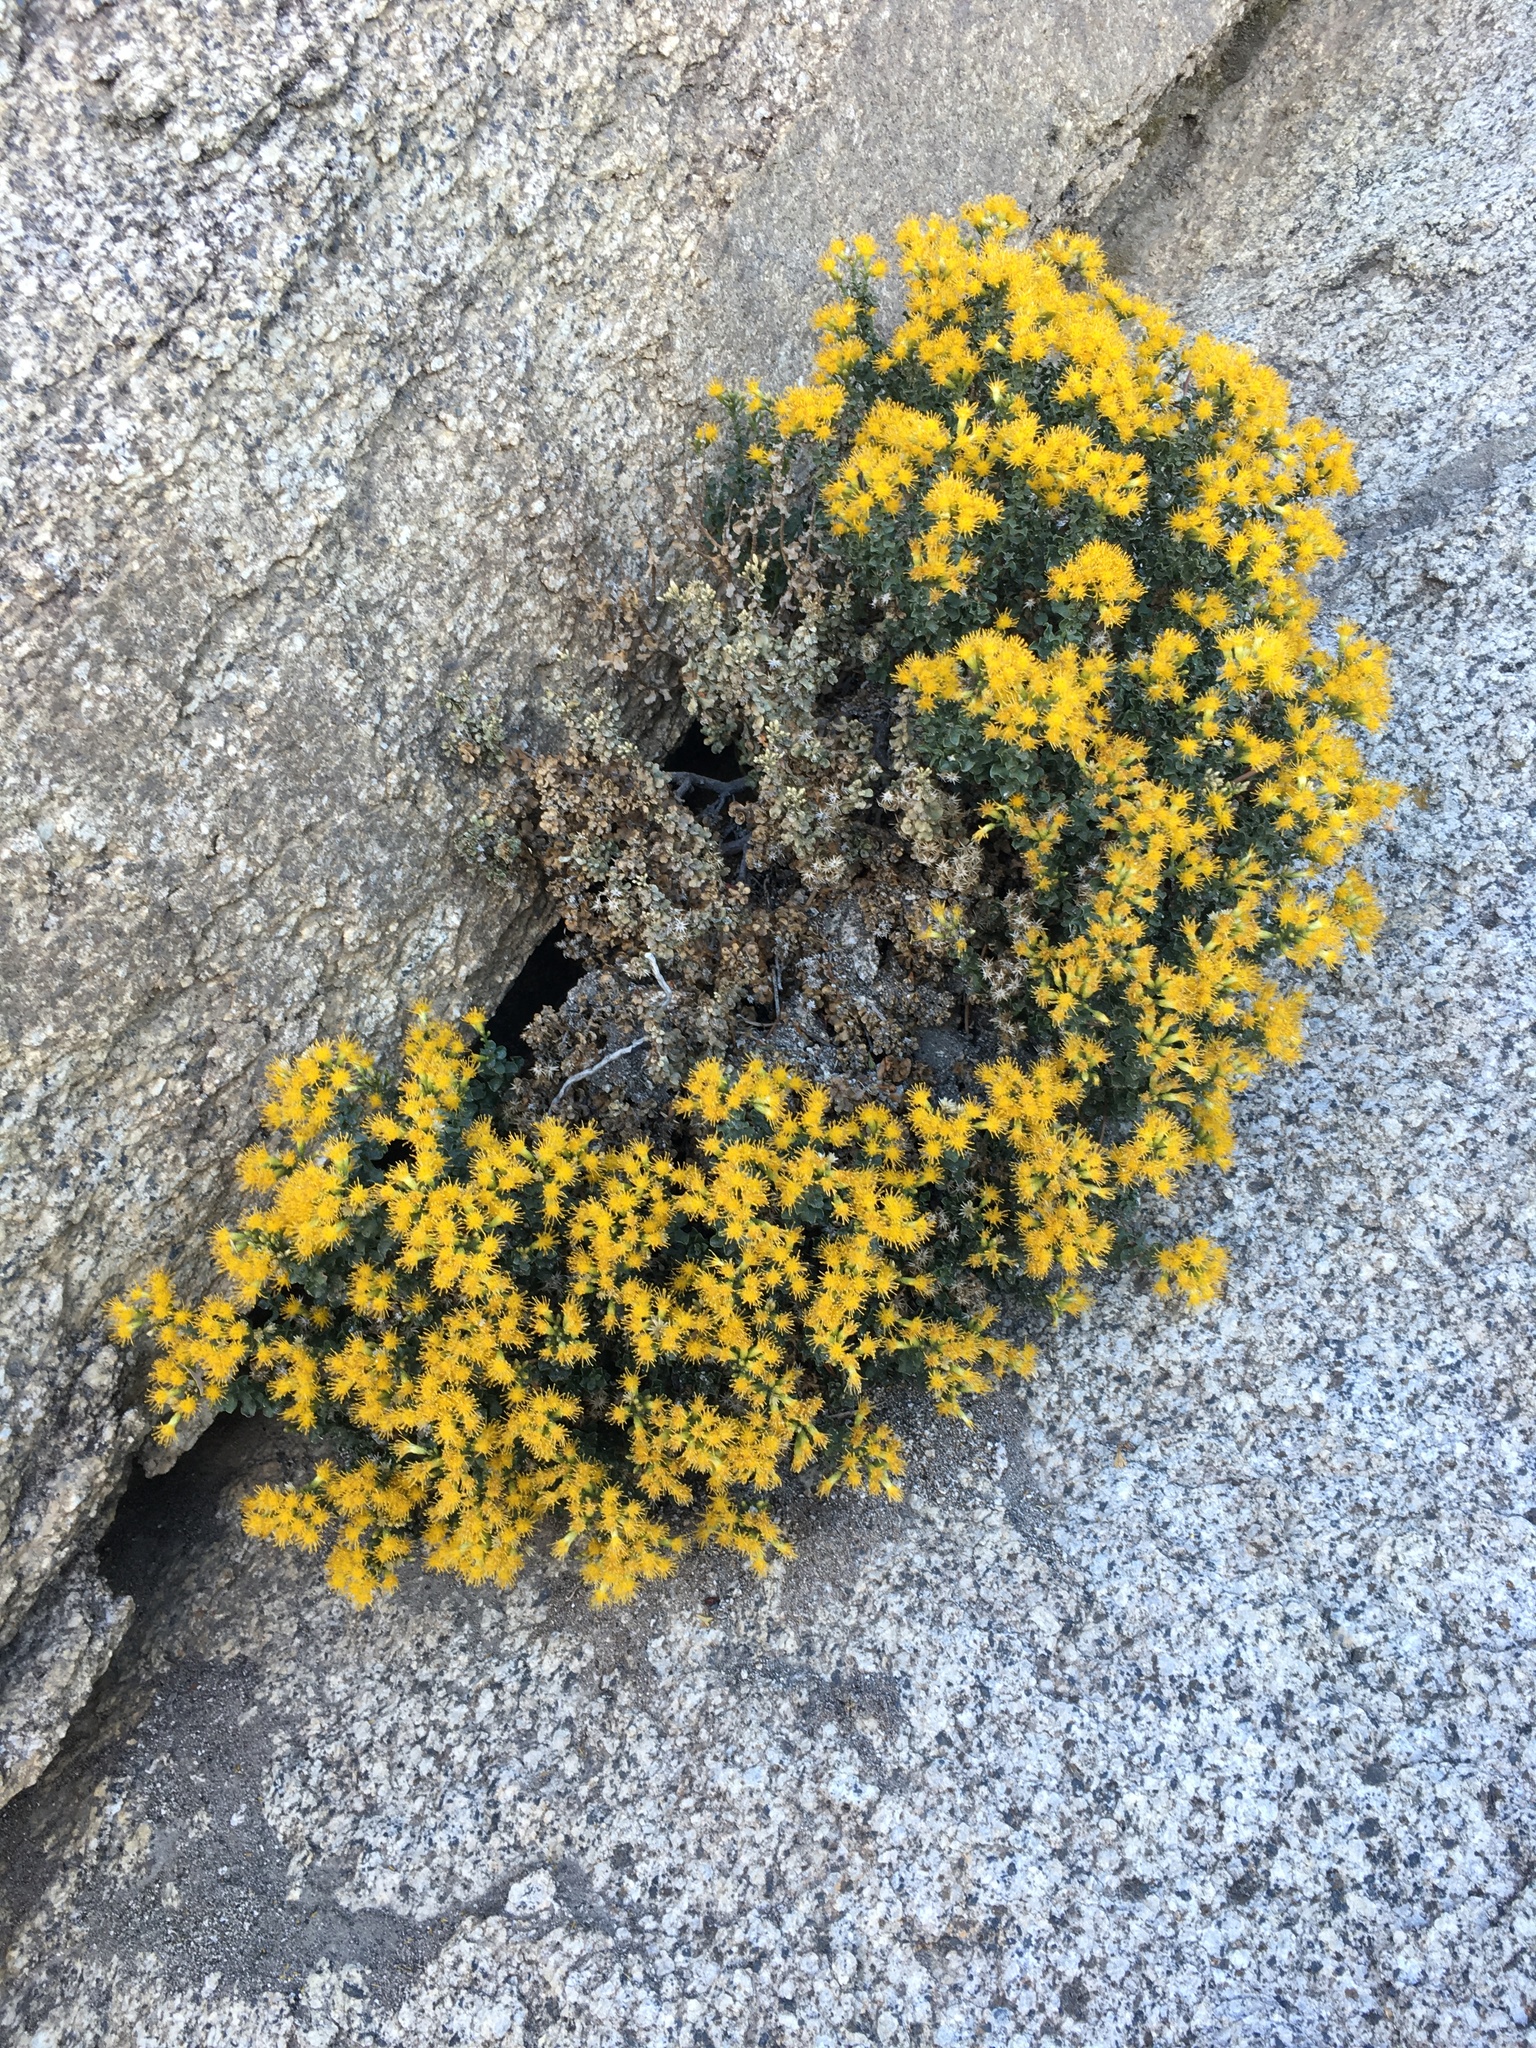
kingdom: Plantae
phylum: Tracheophyta
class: Magnoliopsida
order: Asterales
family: Asteraceae
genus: Ericameria
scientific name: Ericameria cuneata
